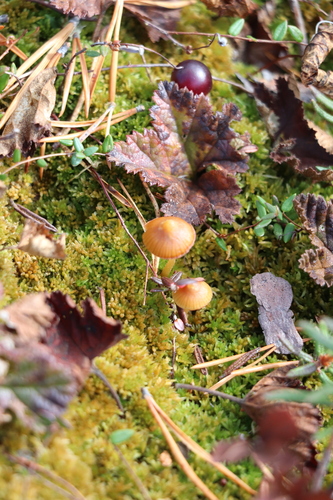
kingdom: Fungi
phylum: Basidiomycota
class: Agaricomycetes
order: Agaricales
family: Hymenogastraceae
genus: Galerina
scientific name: Galerina sphagnorum
